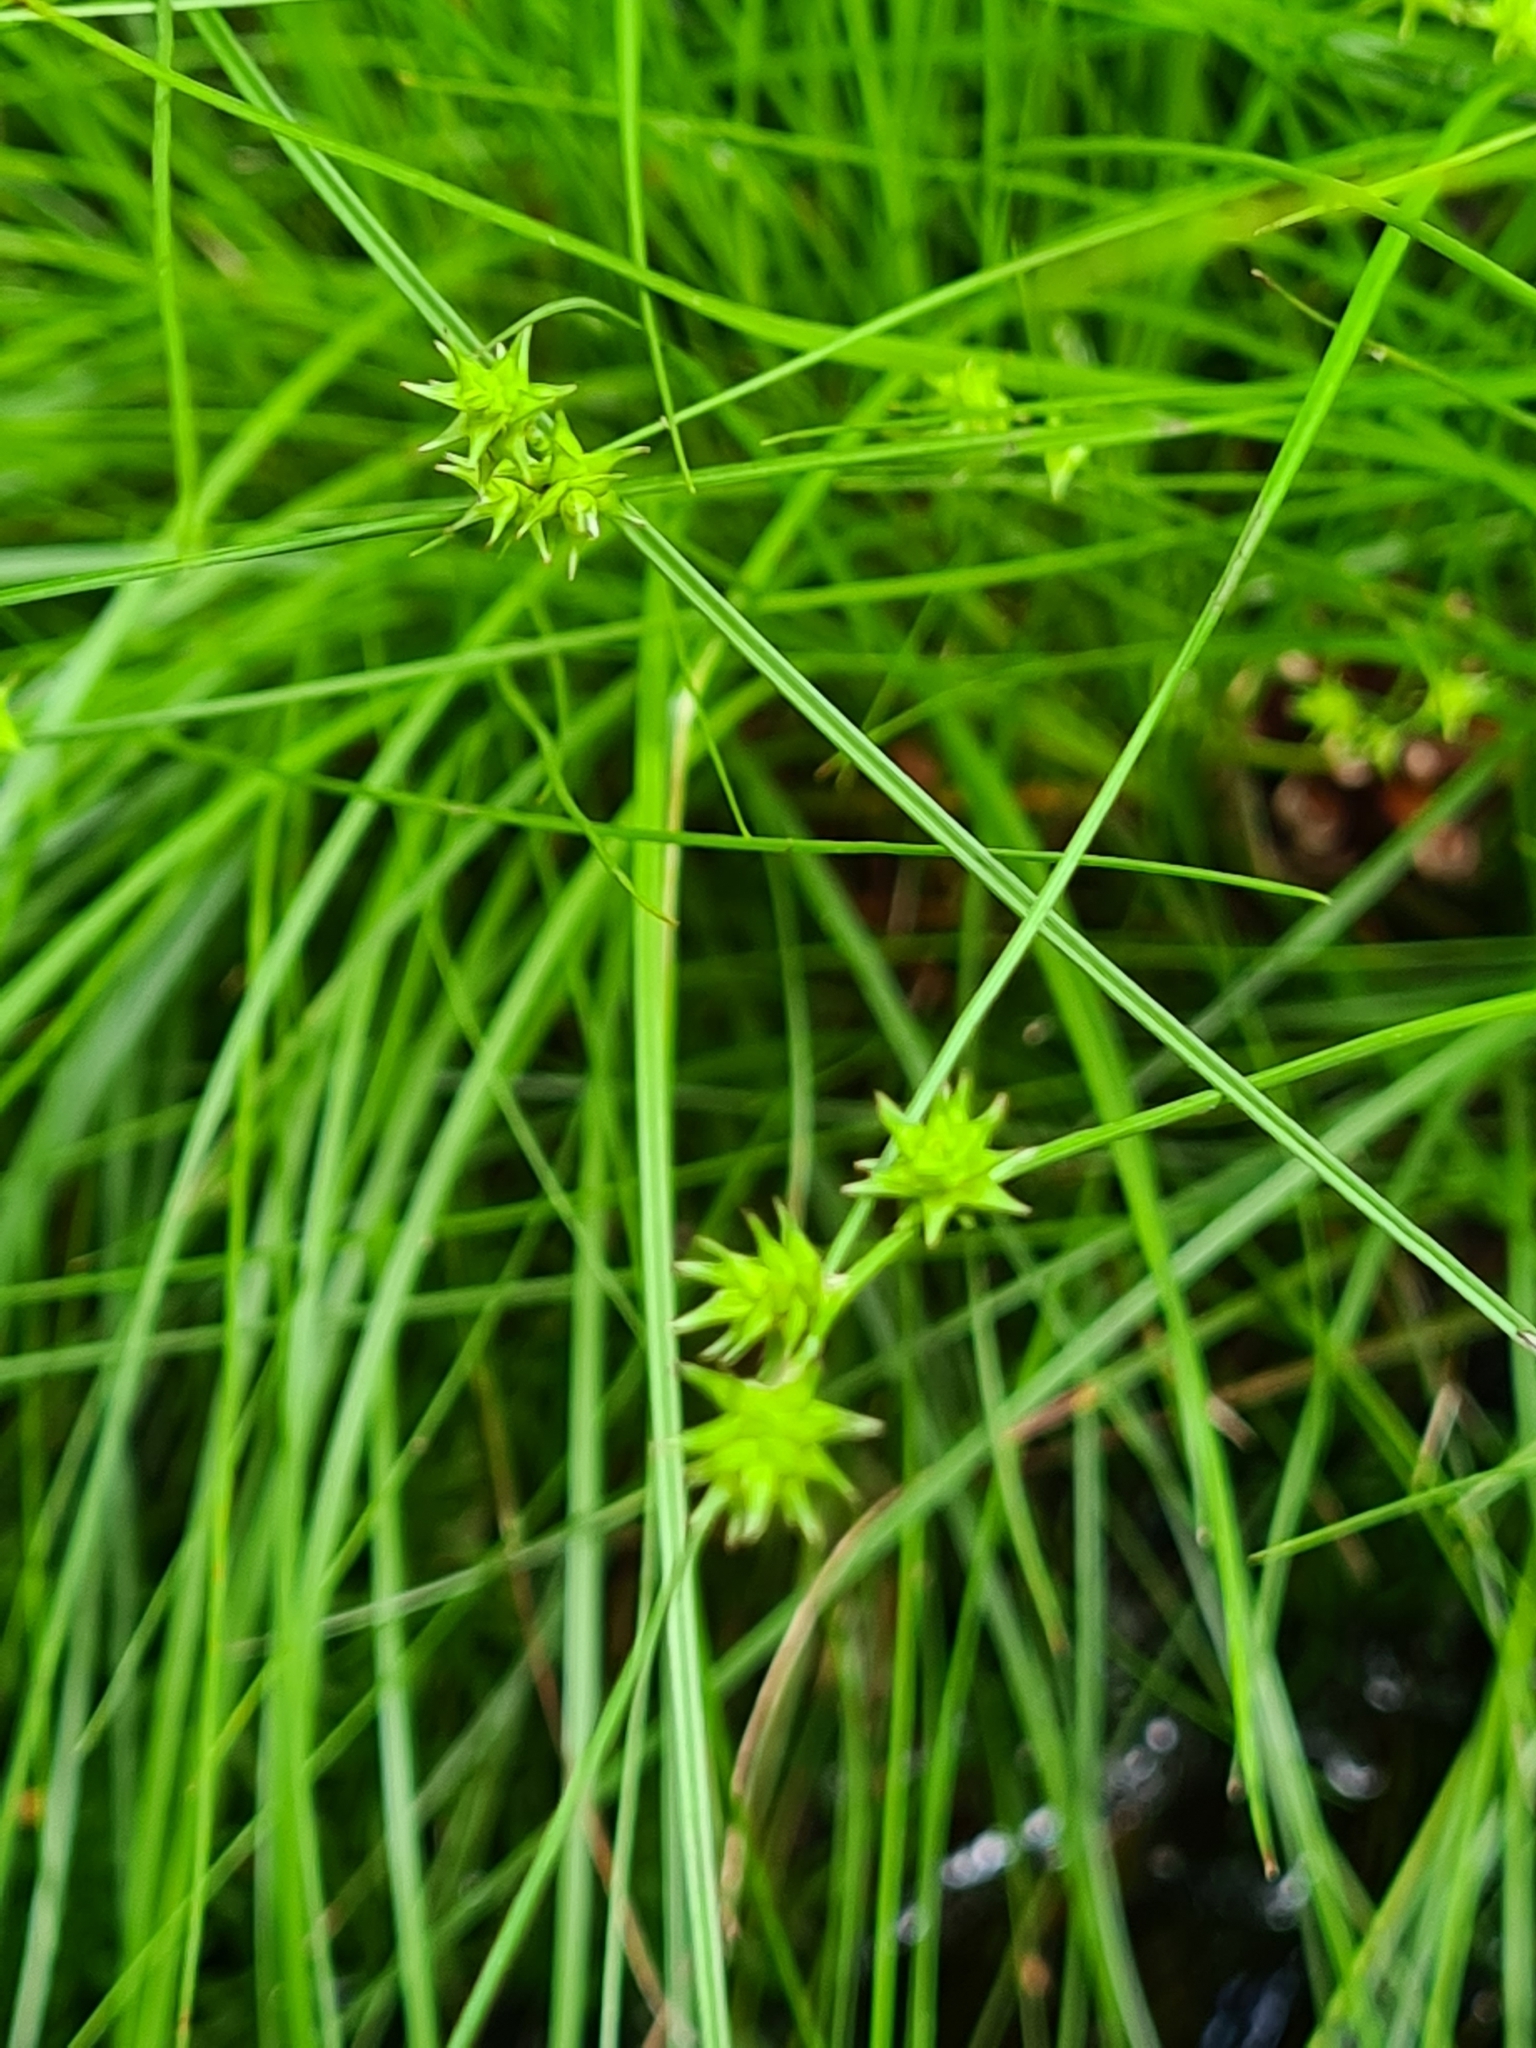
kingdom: Plantae
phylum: Tracheophyta
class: Liliopsida
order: Poales
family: Cyperaceae
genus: Carex
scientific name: Carex echinata
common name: Star sedge
